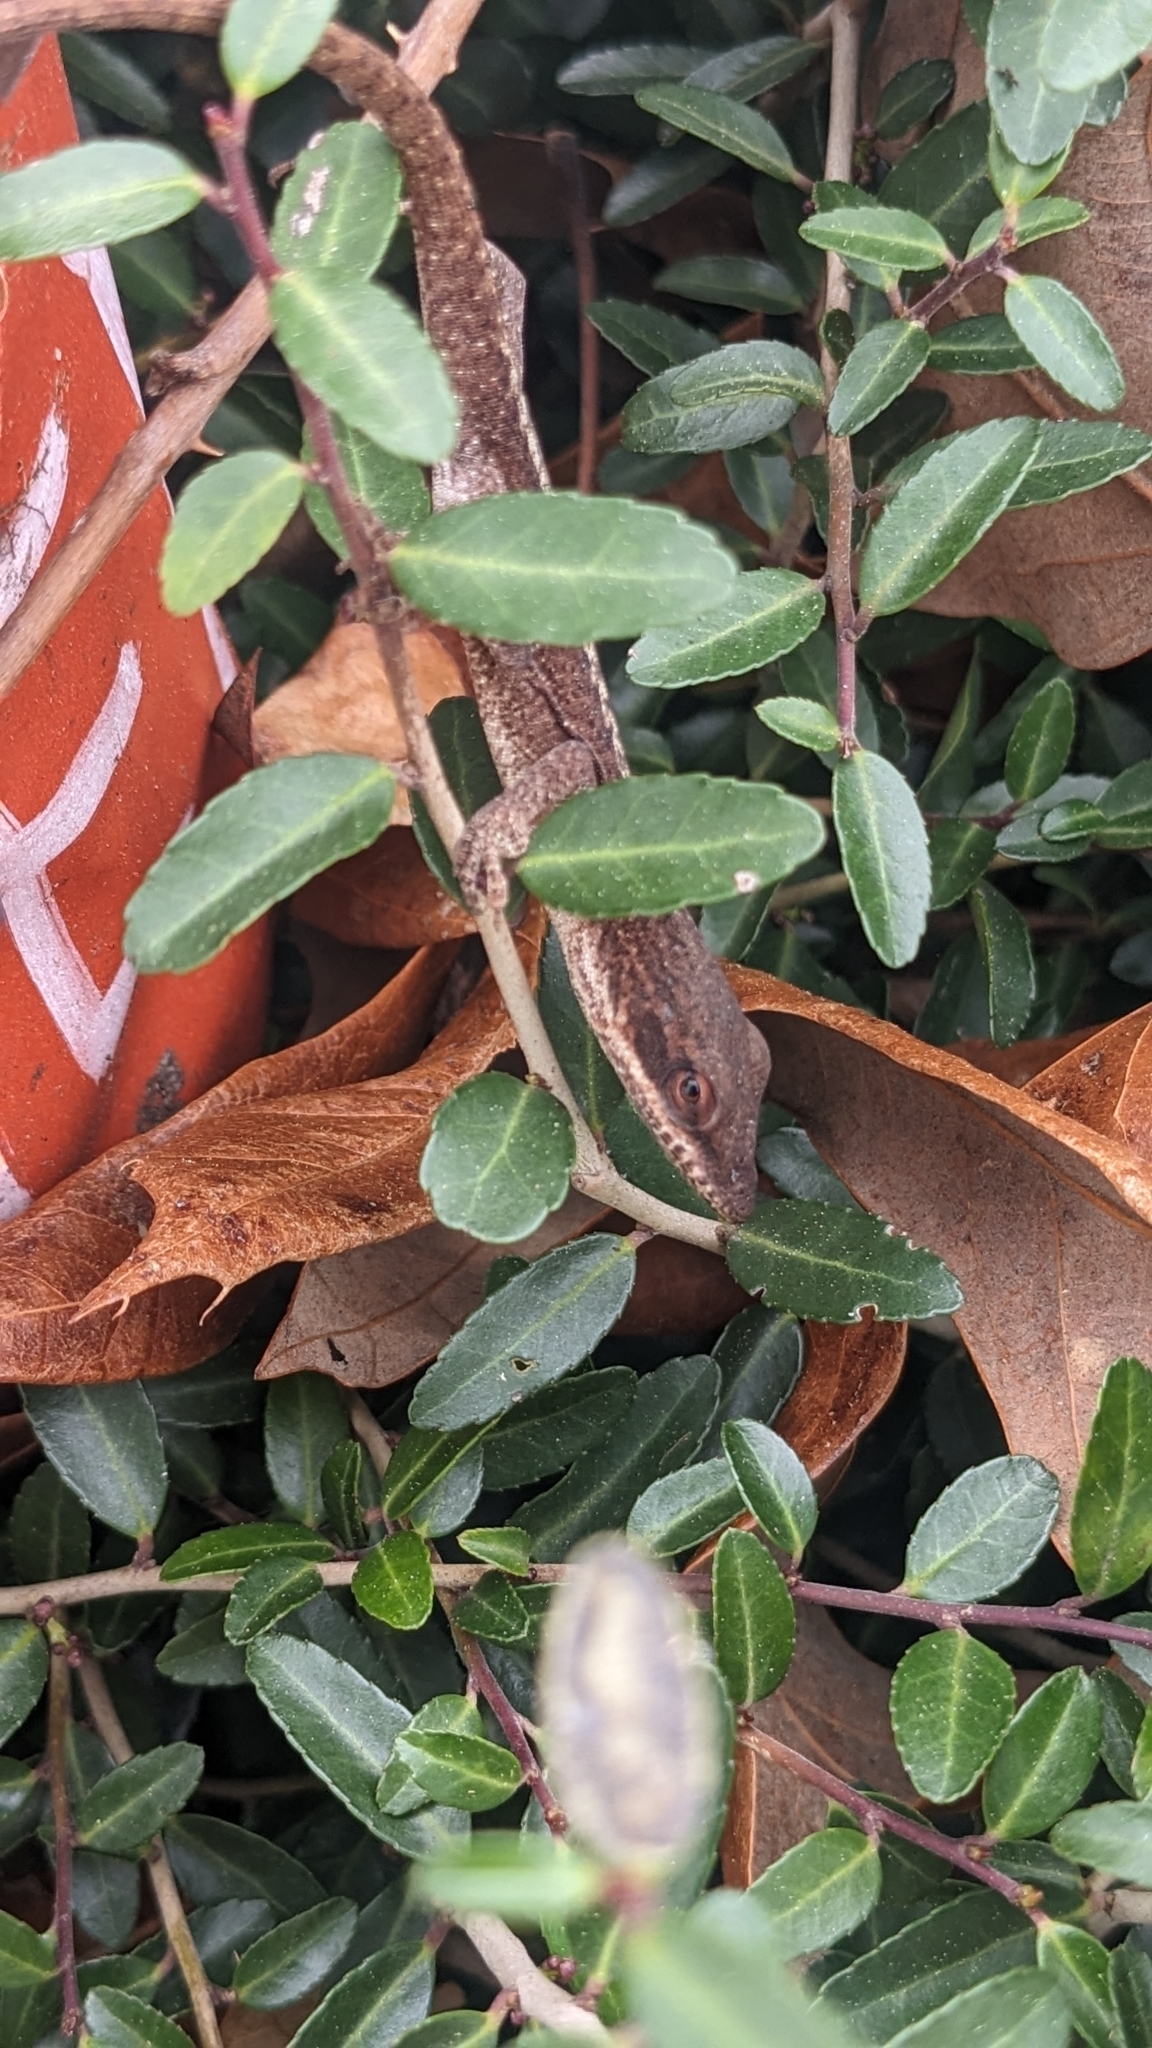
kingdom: Animalia
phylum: Chordata
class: Squamata
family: Dactyloidae
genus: Anolis
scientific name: Anolis carolinensis
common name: Green anole
